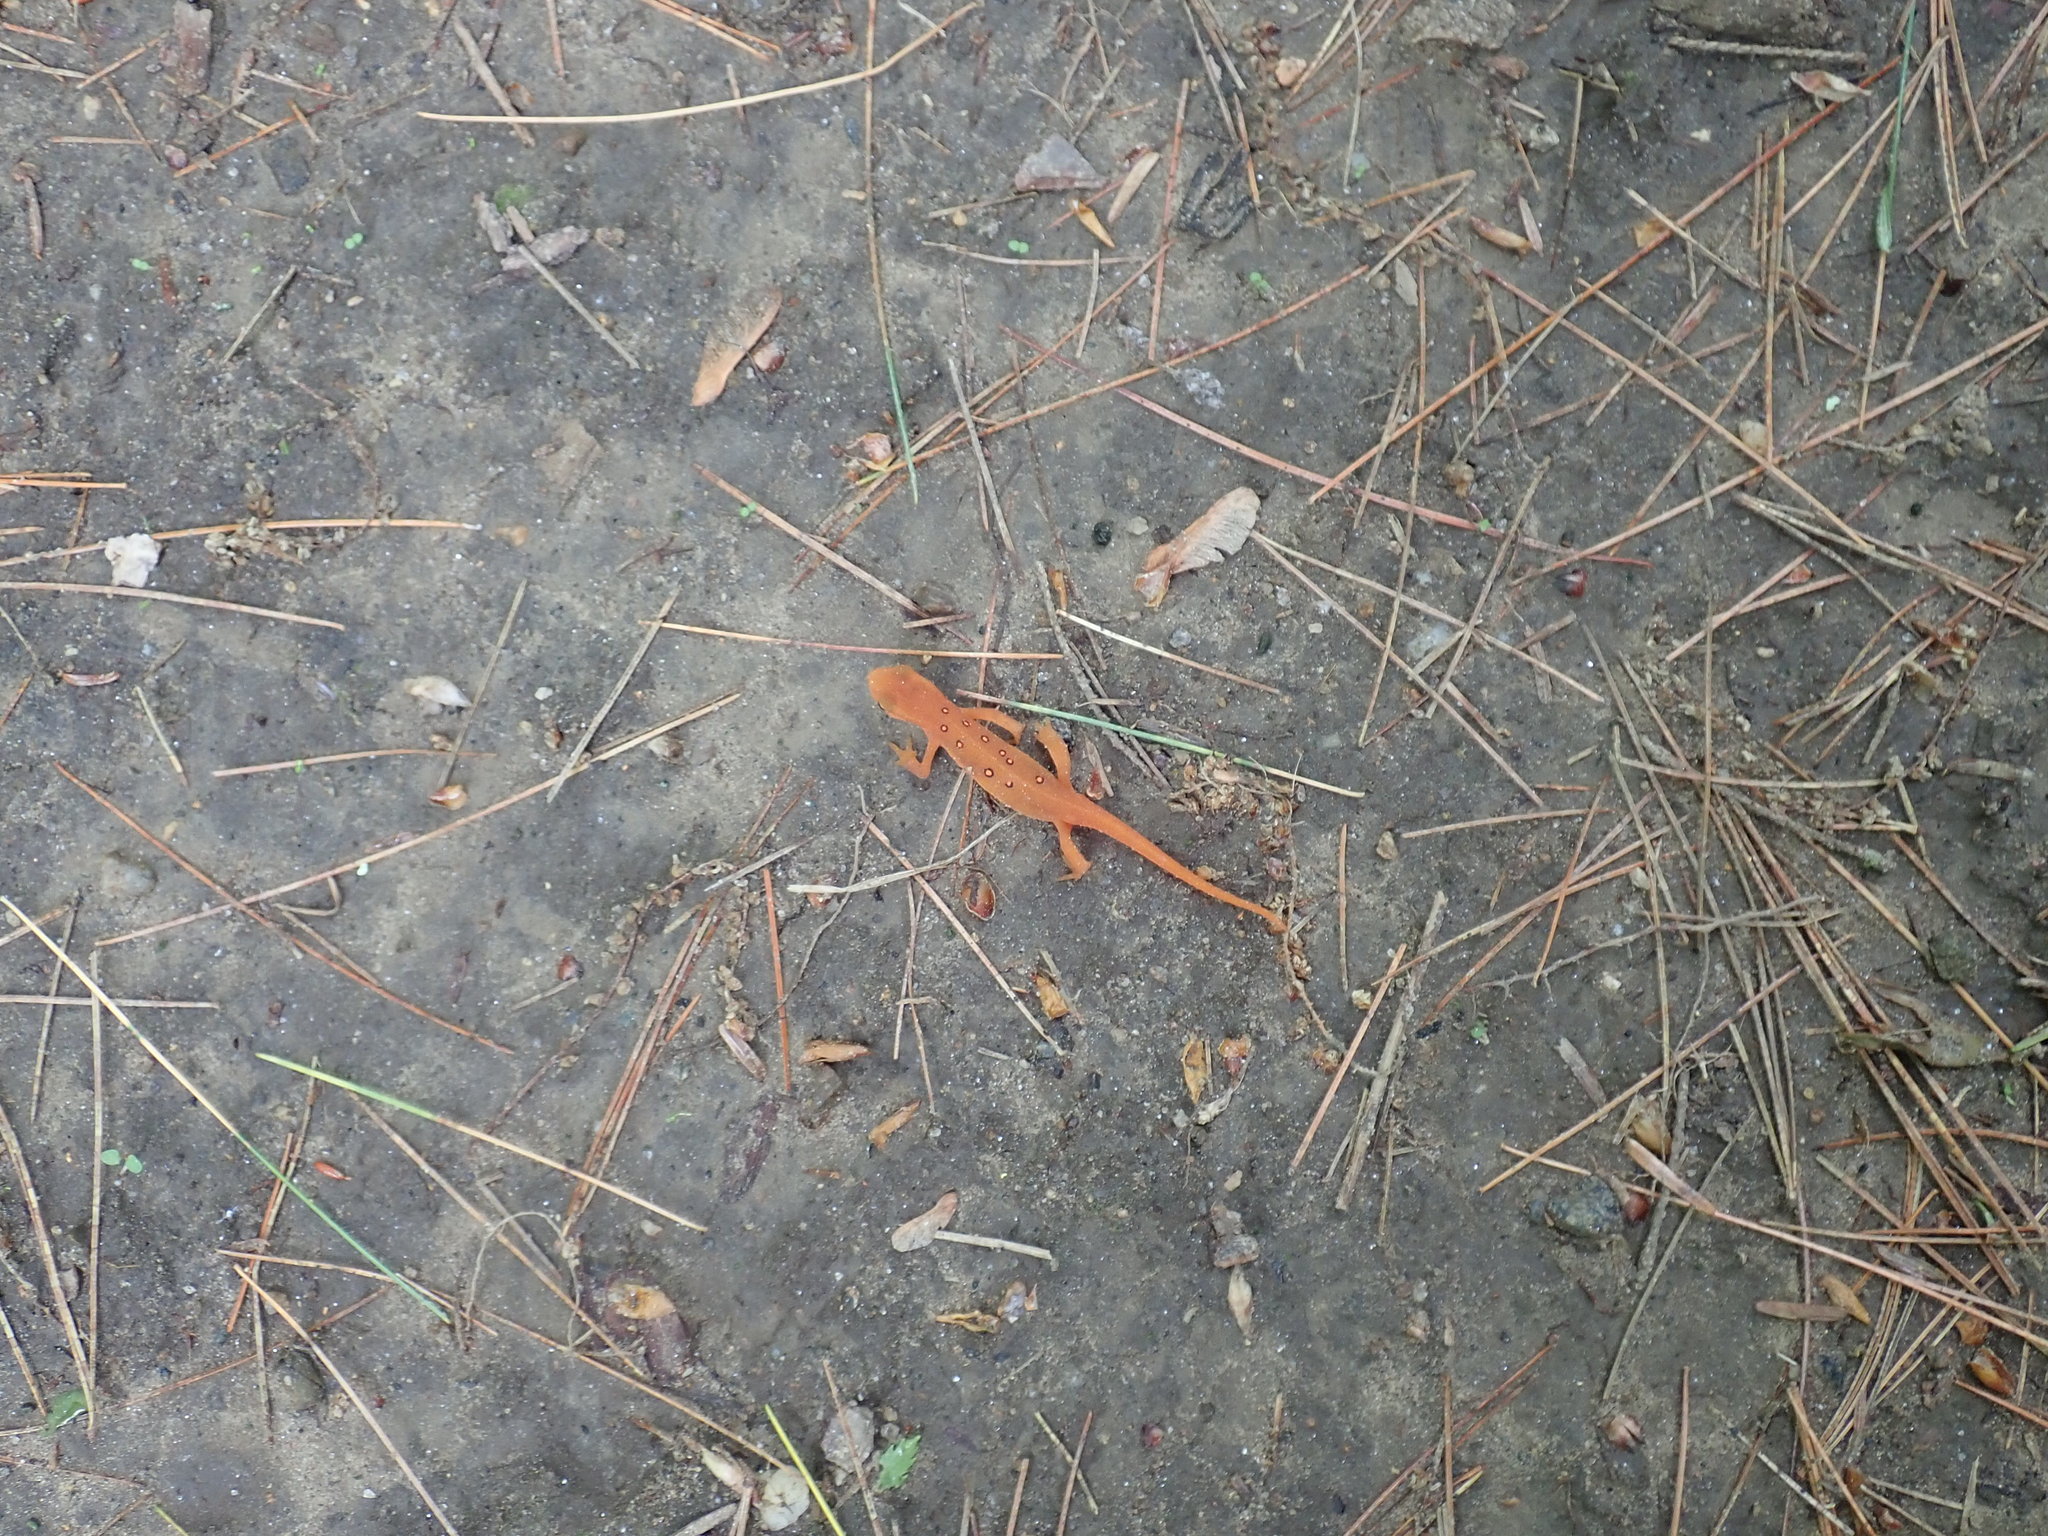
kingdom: Animalia
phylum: Chordata
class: Amphibia
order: Caudata
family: Salamandridae
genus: Notophthalmus
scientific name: Notophthalmus viridescens
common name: Eastern newt
